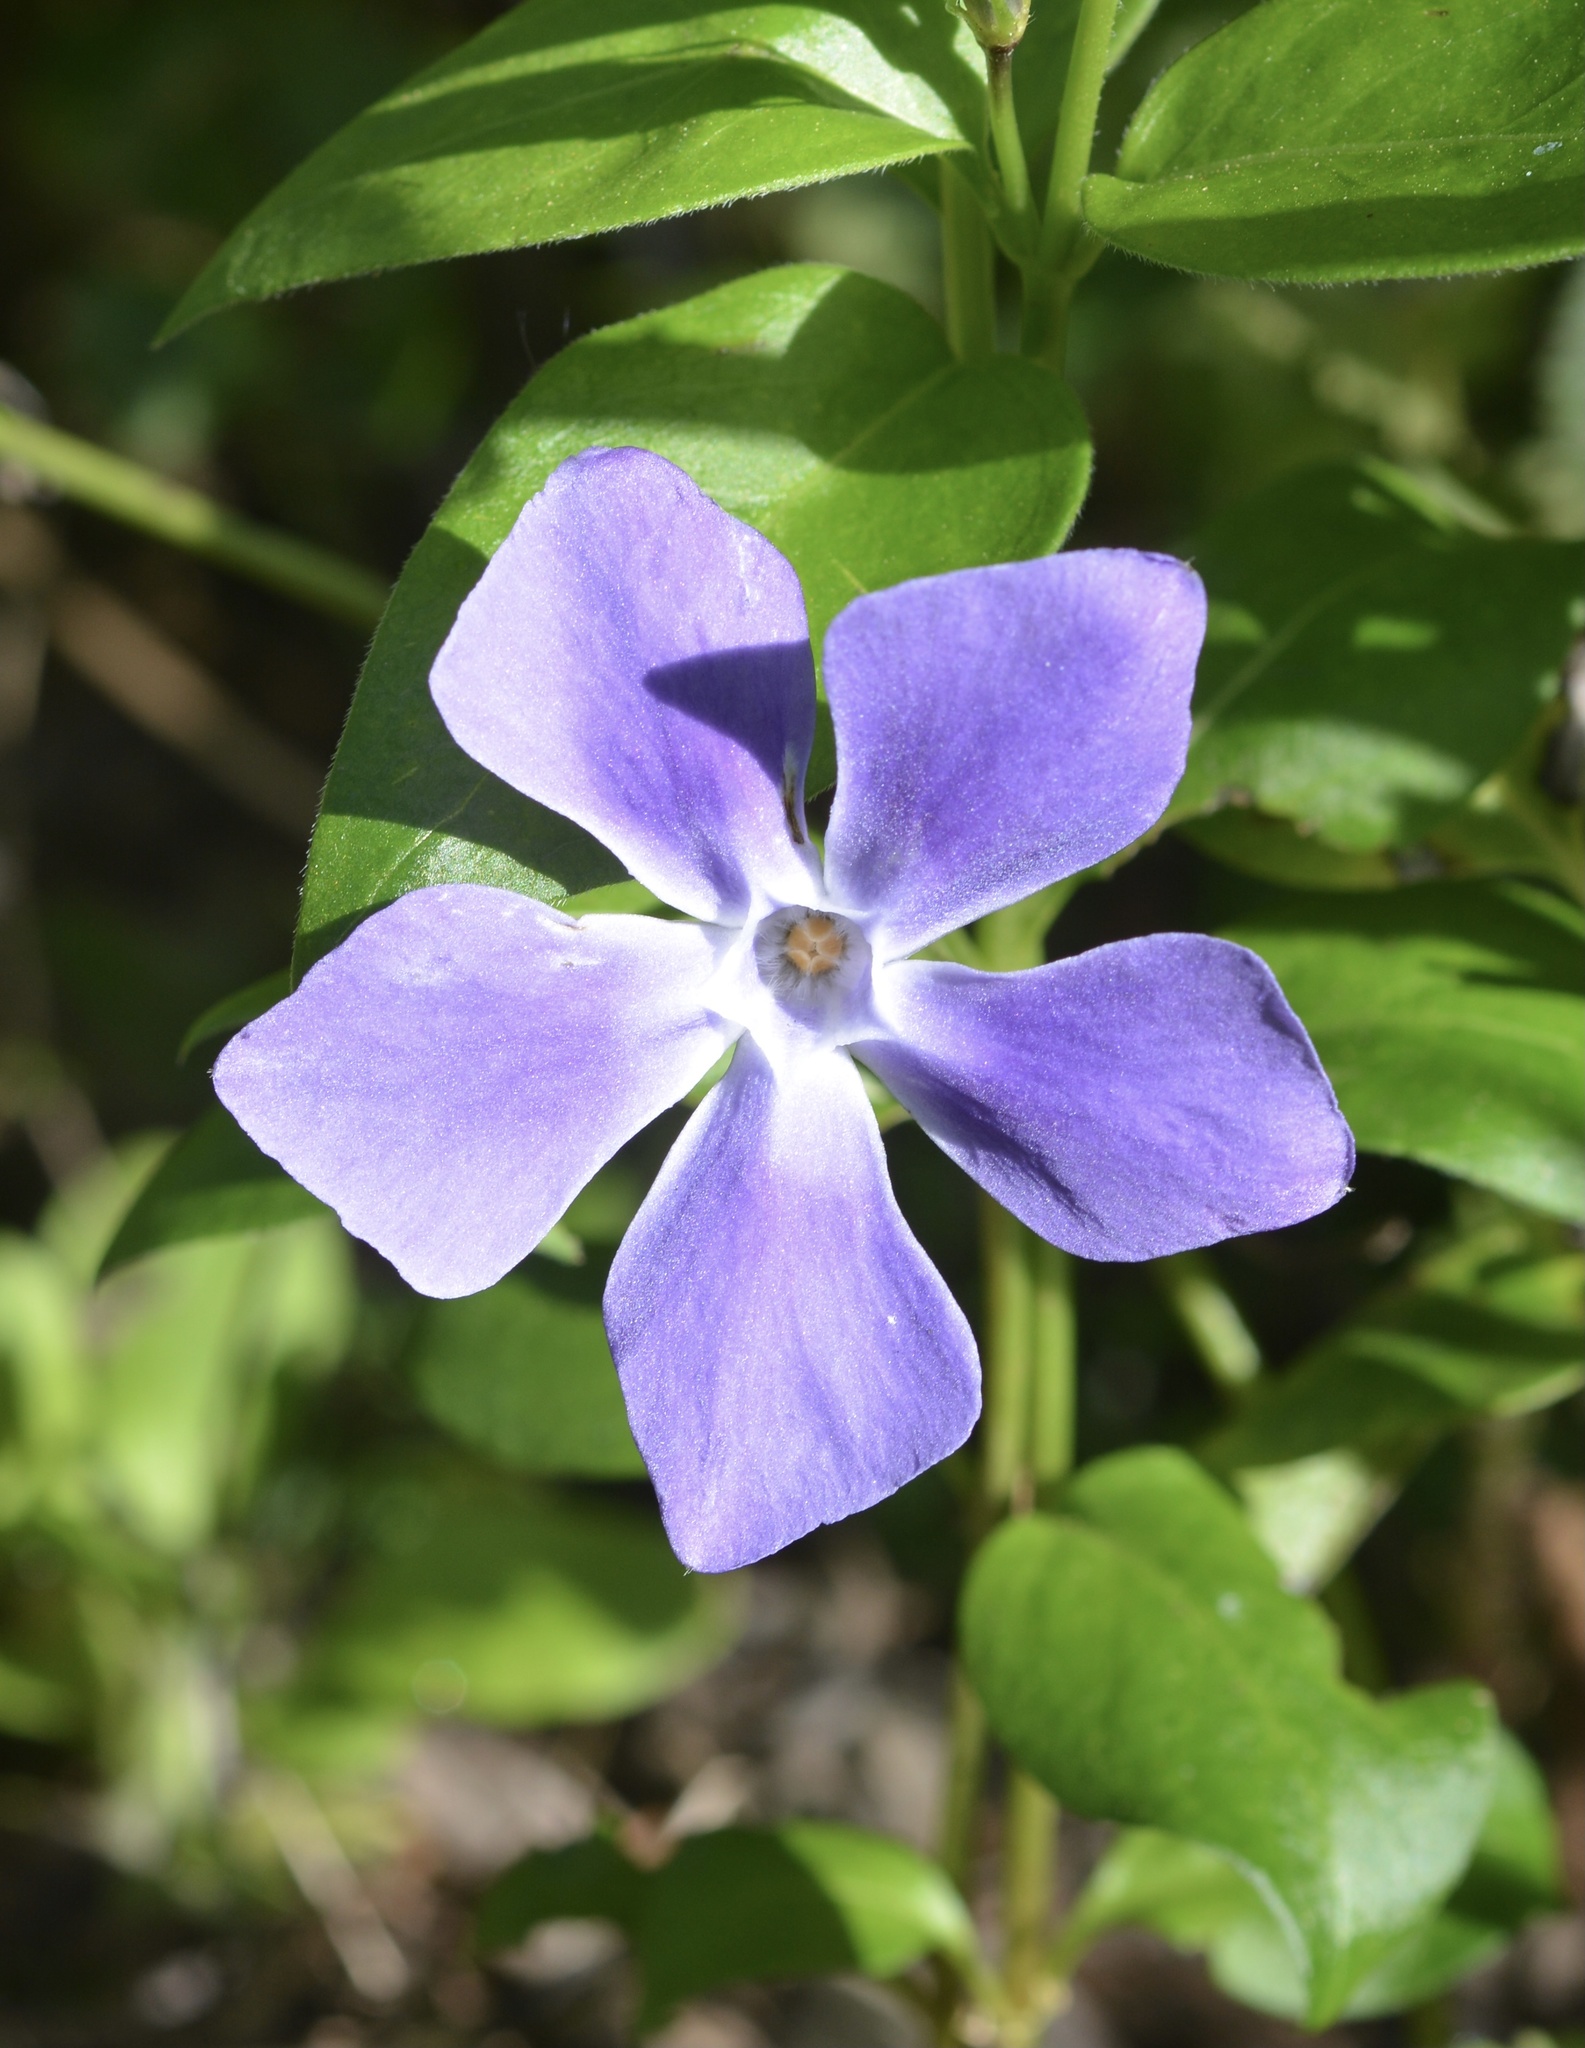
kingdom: Plantae
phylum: Tracheophyta
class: Magnoliopsida
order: Gentianales
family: Apocynaceae
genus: Vinca
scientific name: Vinca major
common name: Greater periwinkle
